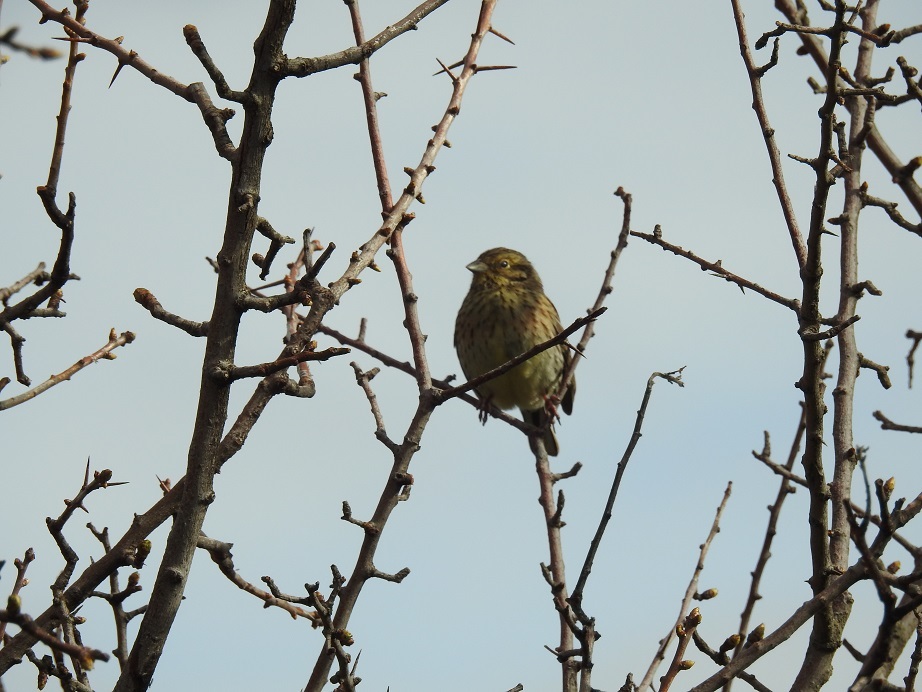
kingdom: Animalia
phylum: Chordata
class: Aves
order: Passeriformes
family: Emberizidae
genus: Emberiza
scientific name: Emberiza cirlus
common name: Cirl bunting
